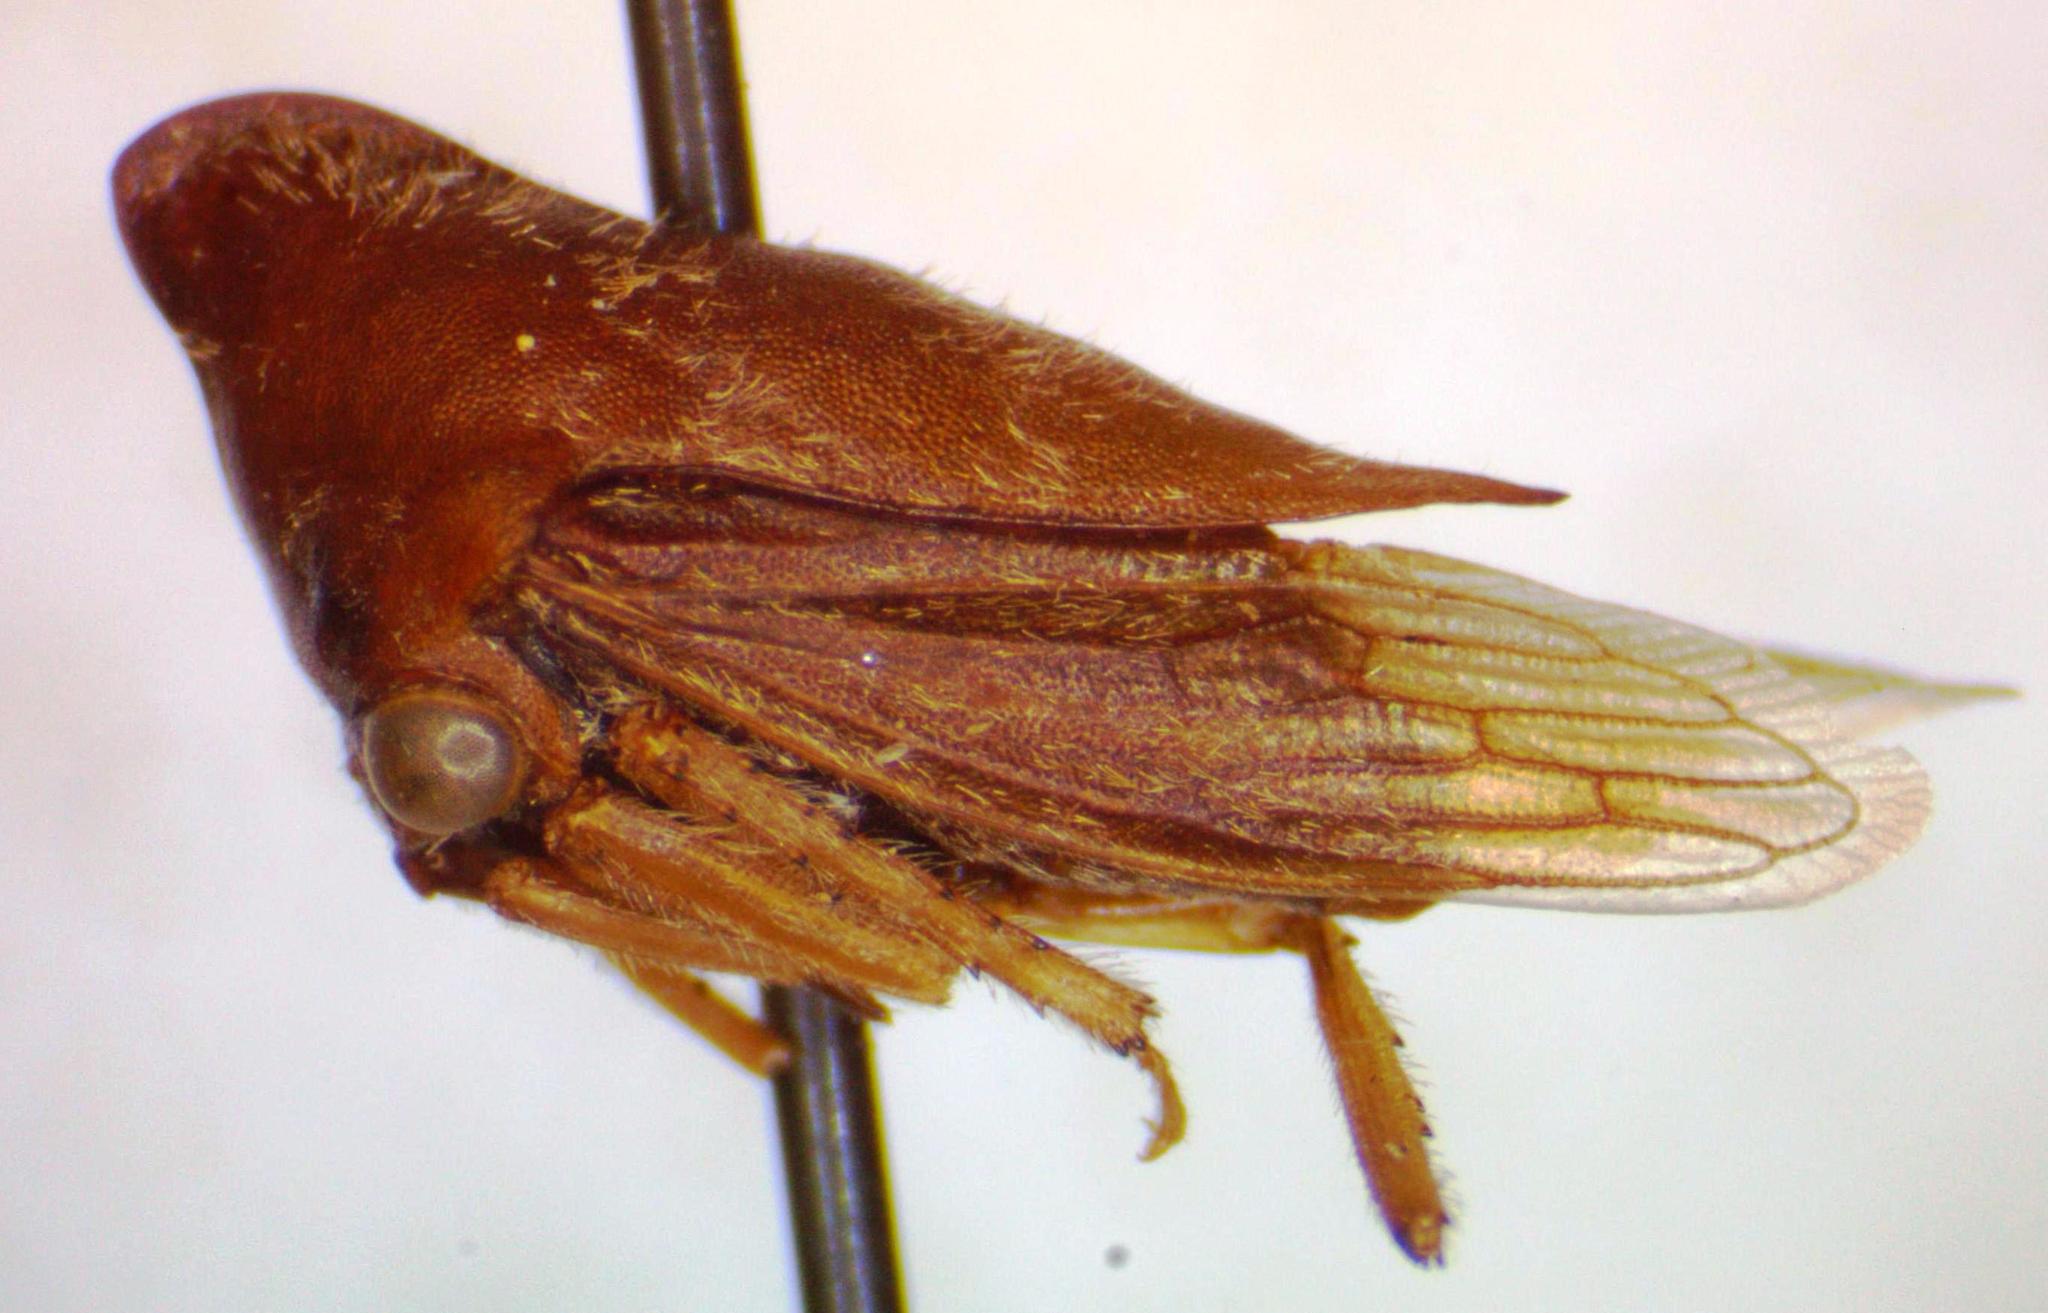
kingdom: Animalia
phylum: Arthropoda
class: Insecta
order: Hemiptera
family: Membracidae
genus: Calloconophora
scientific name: Calloconophora obliqua
